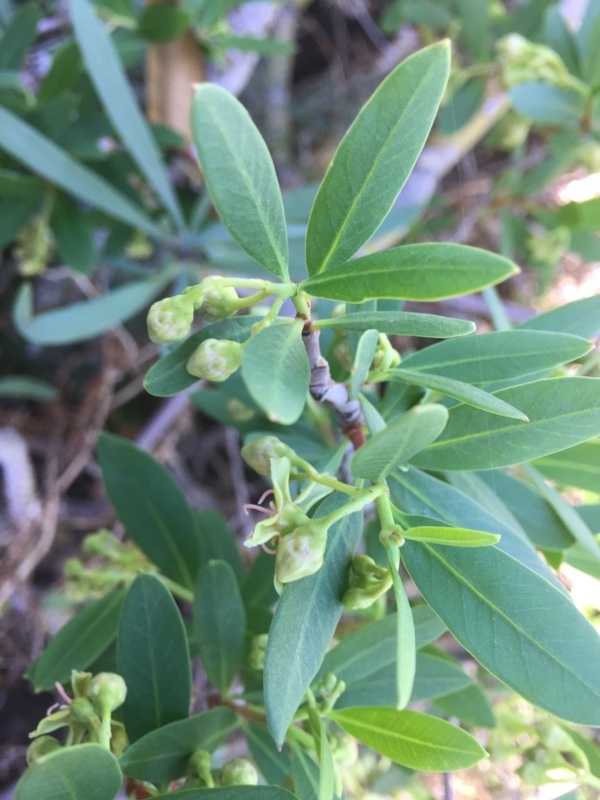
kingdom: Plantae
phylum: Tracheophyta
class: Magnoliopsida
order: Gentianales
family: Apocynaceae
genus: Periploca
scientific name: Periploca laevigata
